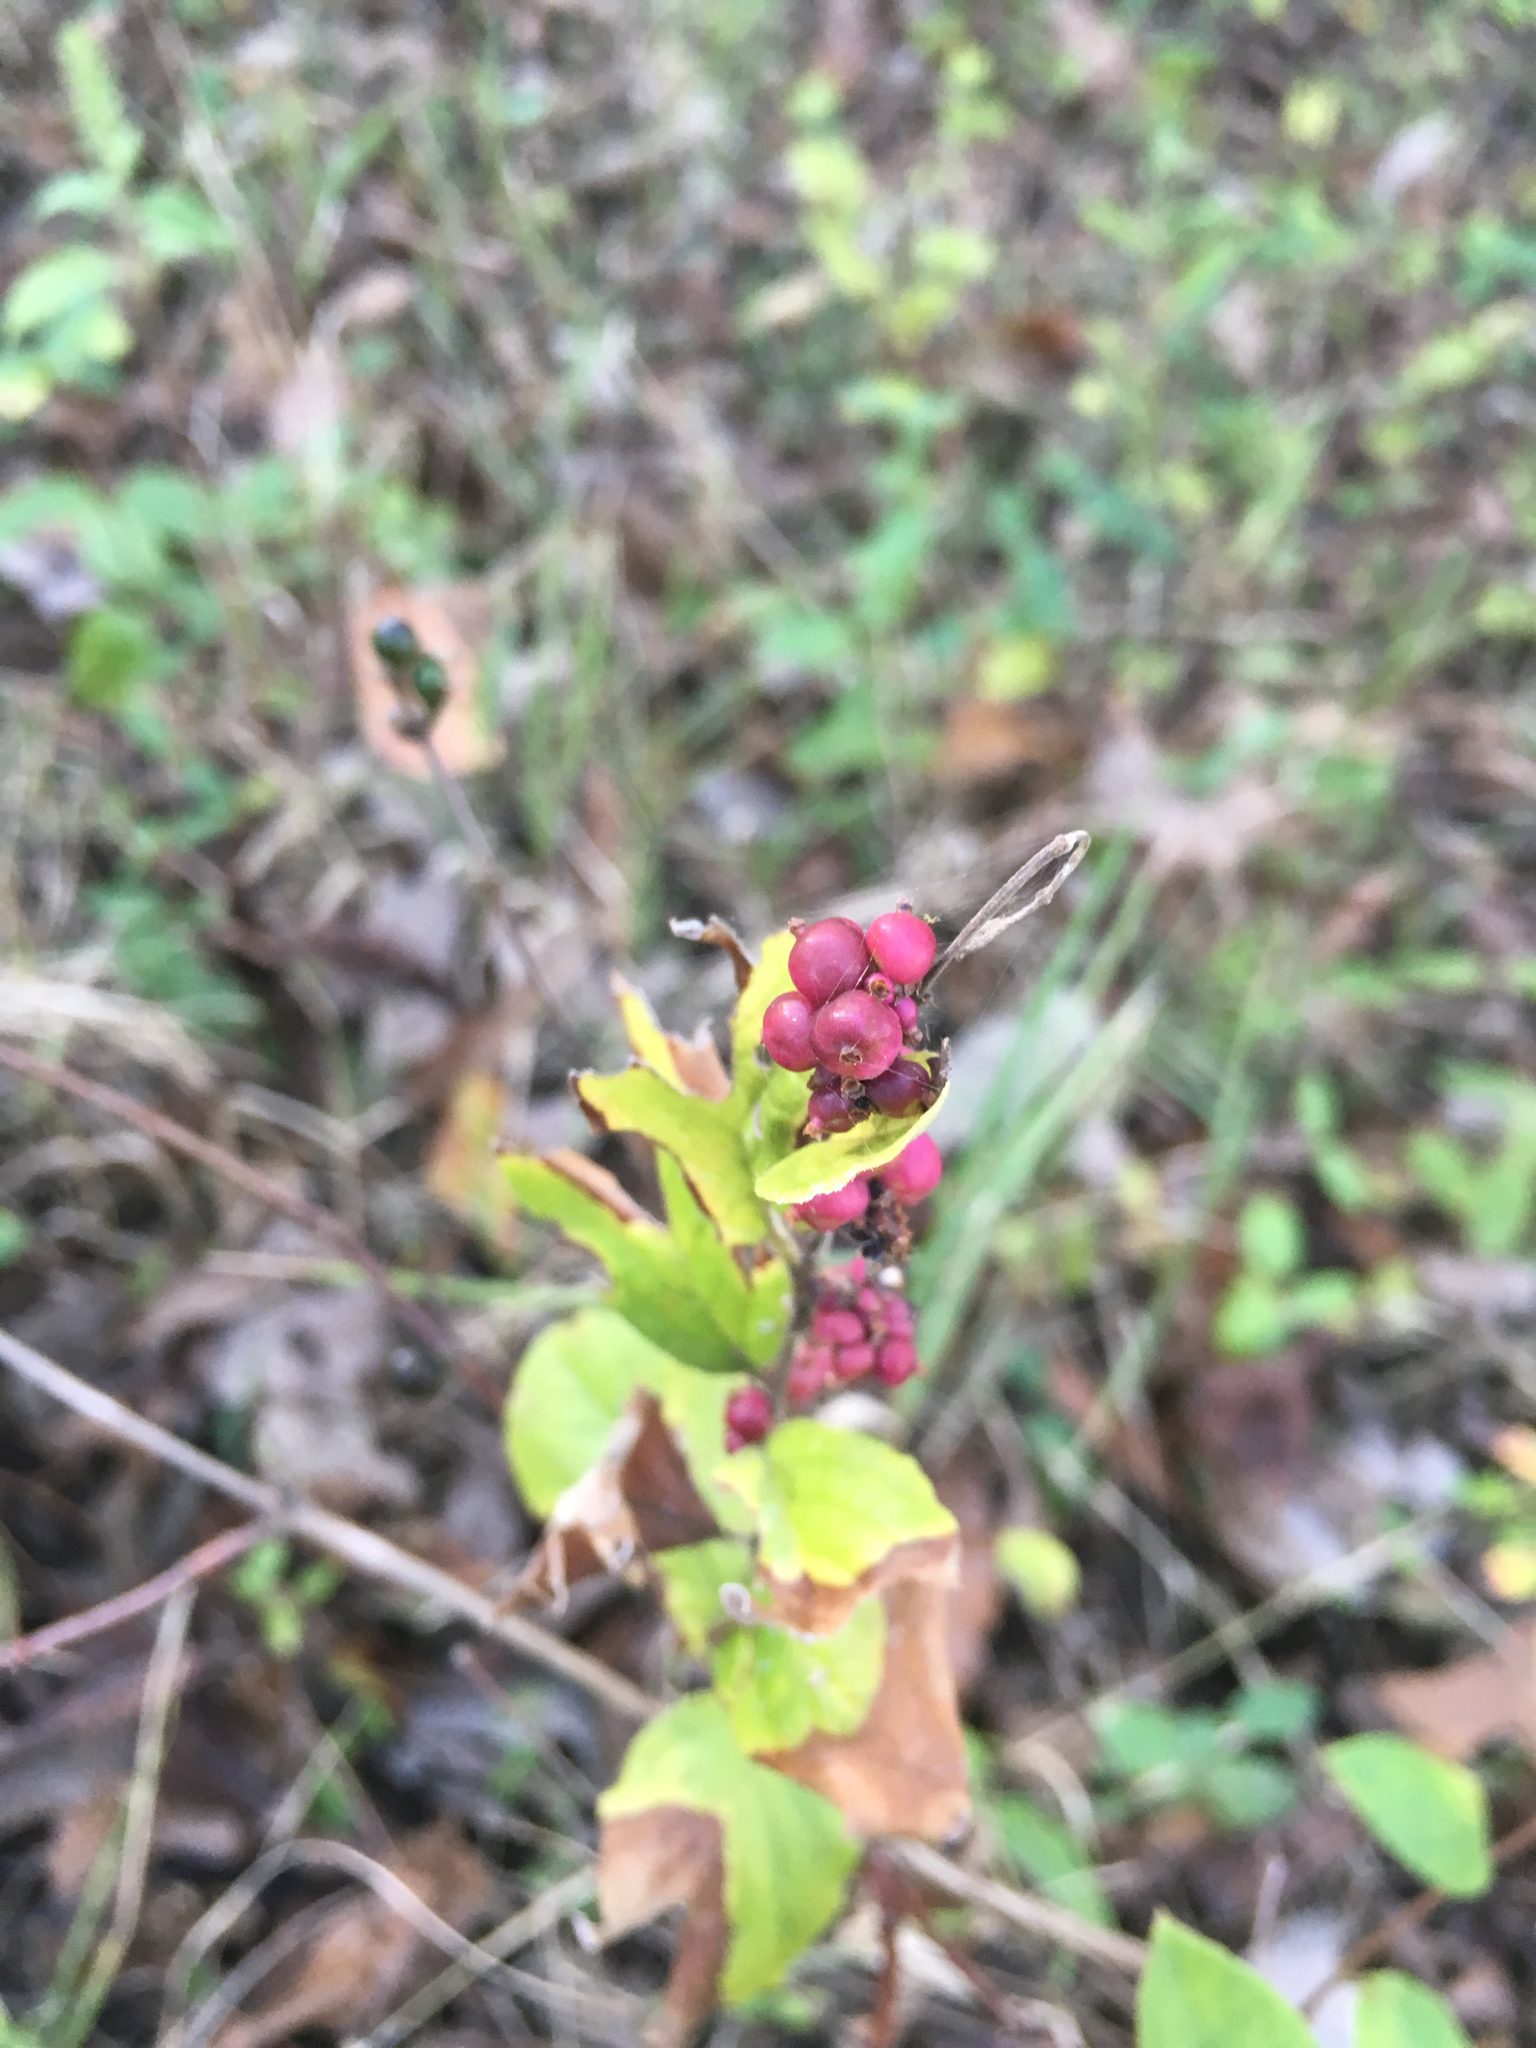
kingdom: Plantae
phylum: Tracheophyta
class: Magnoliopsida
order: Dipsacales
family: Caprifoliaceae
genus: Symphoricarpos
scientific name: Symphoricarpos orbiculatus
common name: Coralberry
